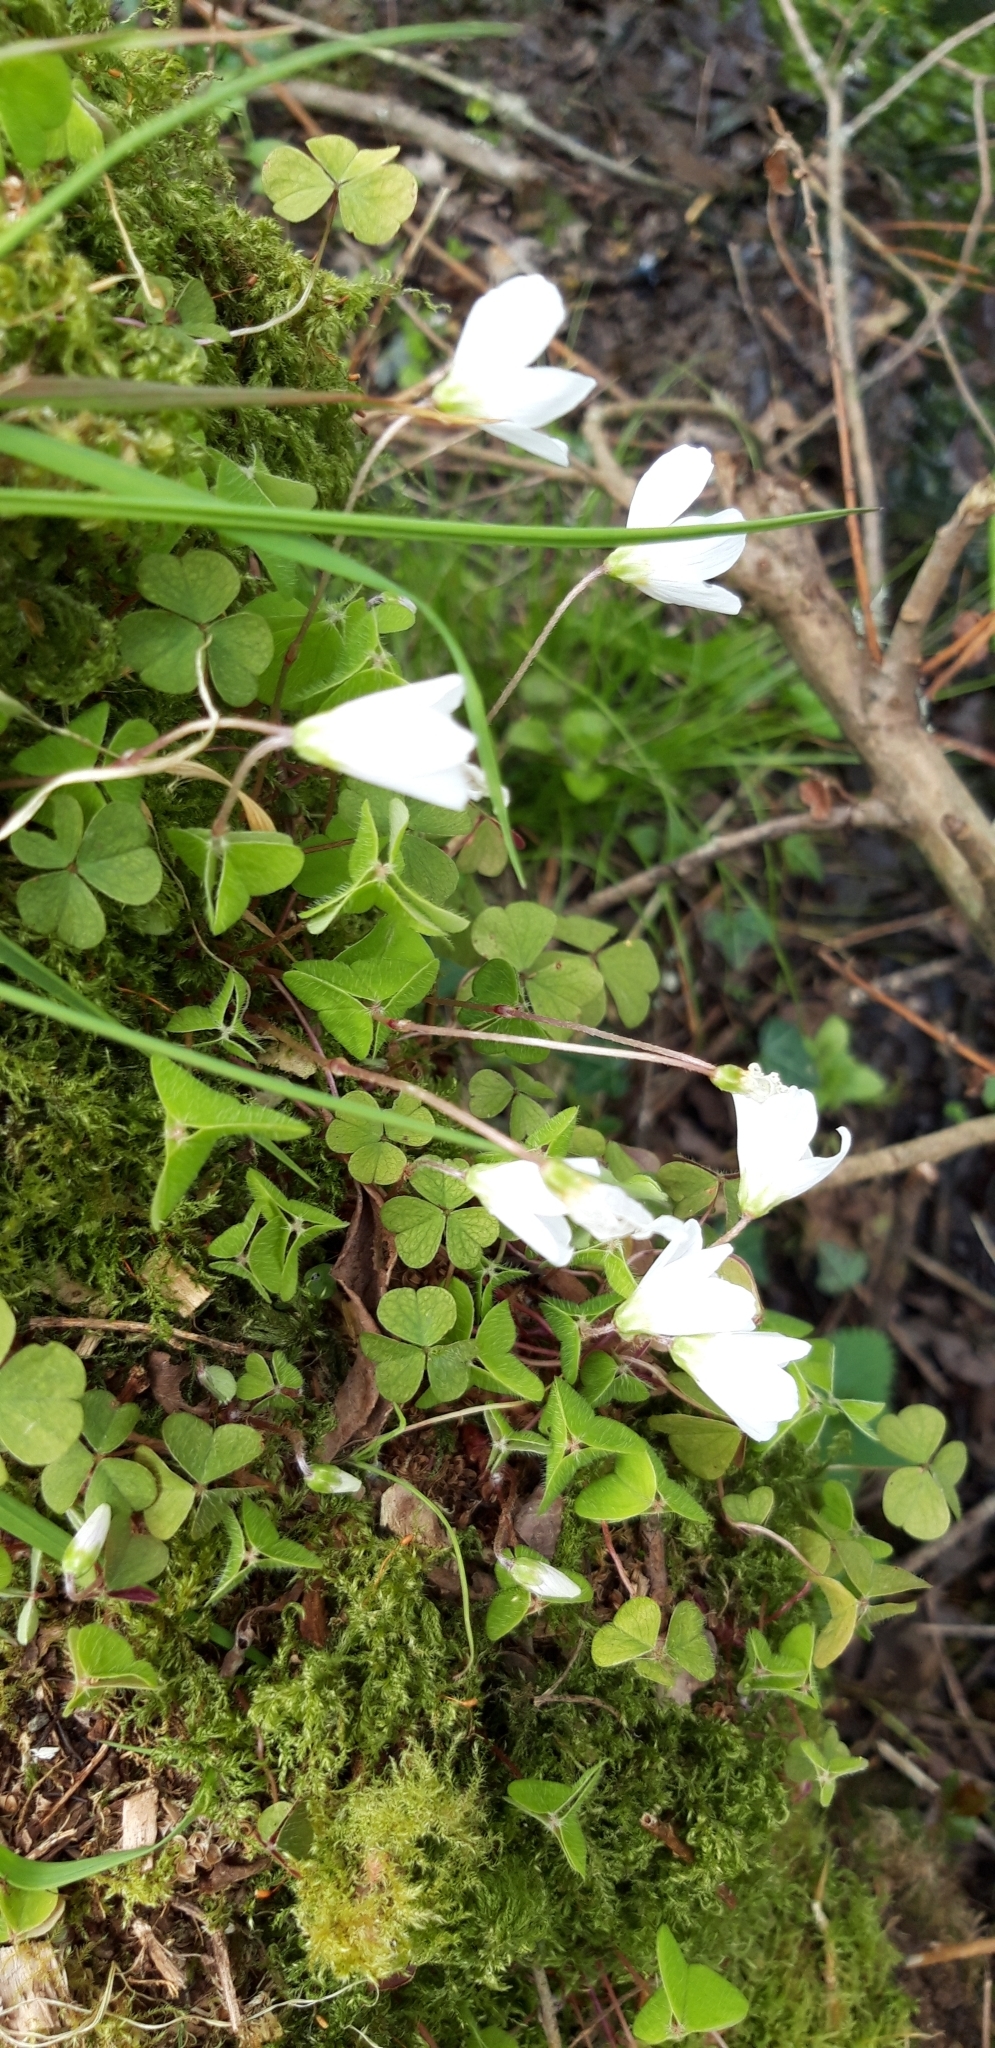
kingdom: Plantae
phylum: Tracheophyta
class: Magnoliopsida
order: Oxalidales
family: Oxalidaceae
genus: Oxalis
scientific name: Oxalis acetosella
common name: Wood-sorrel
